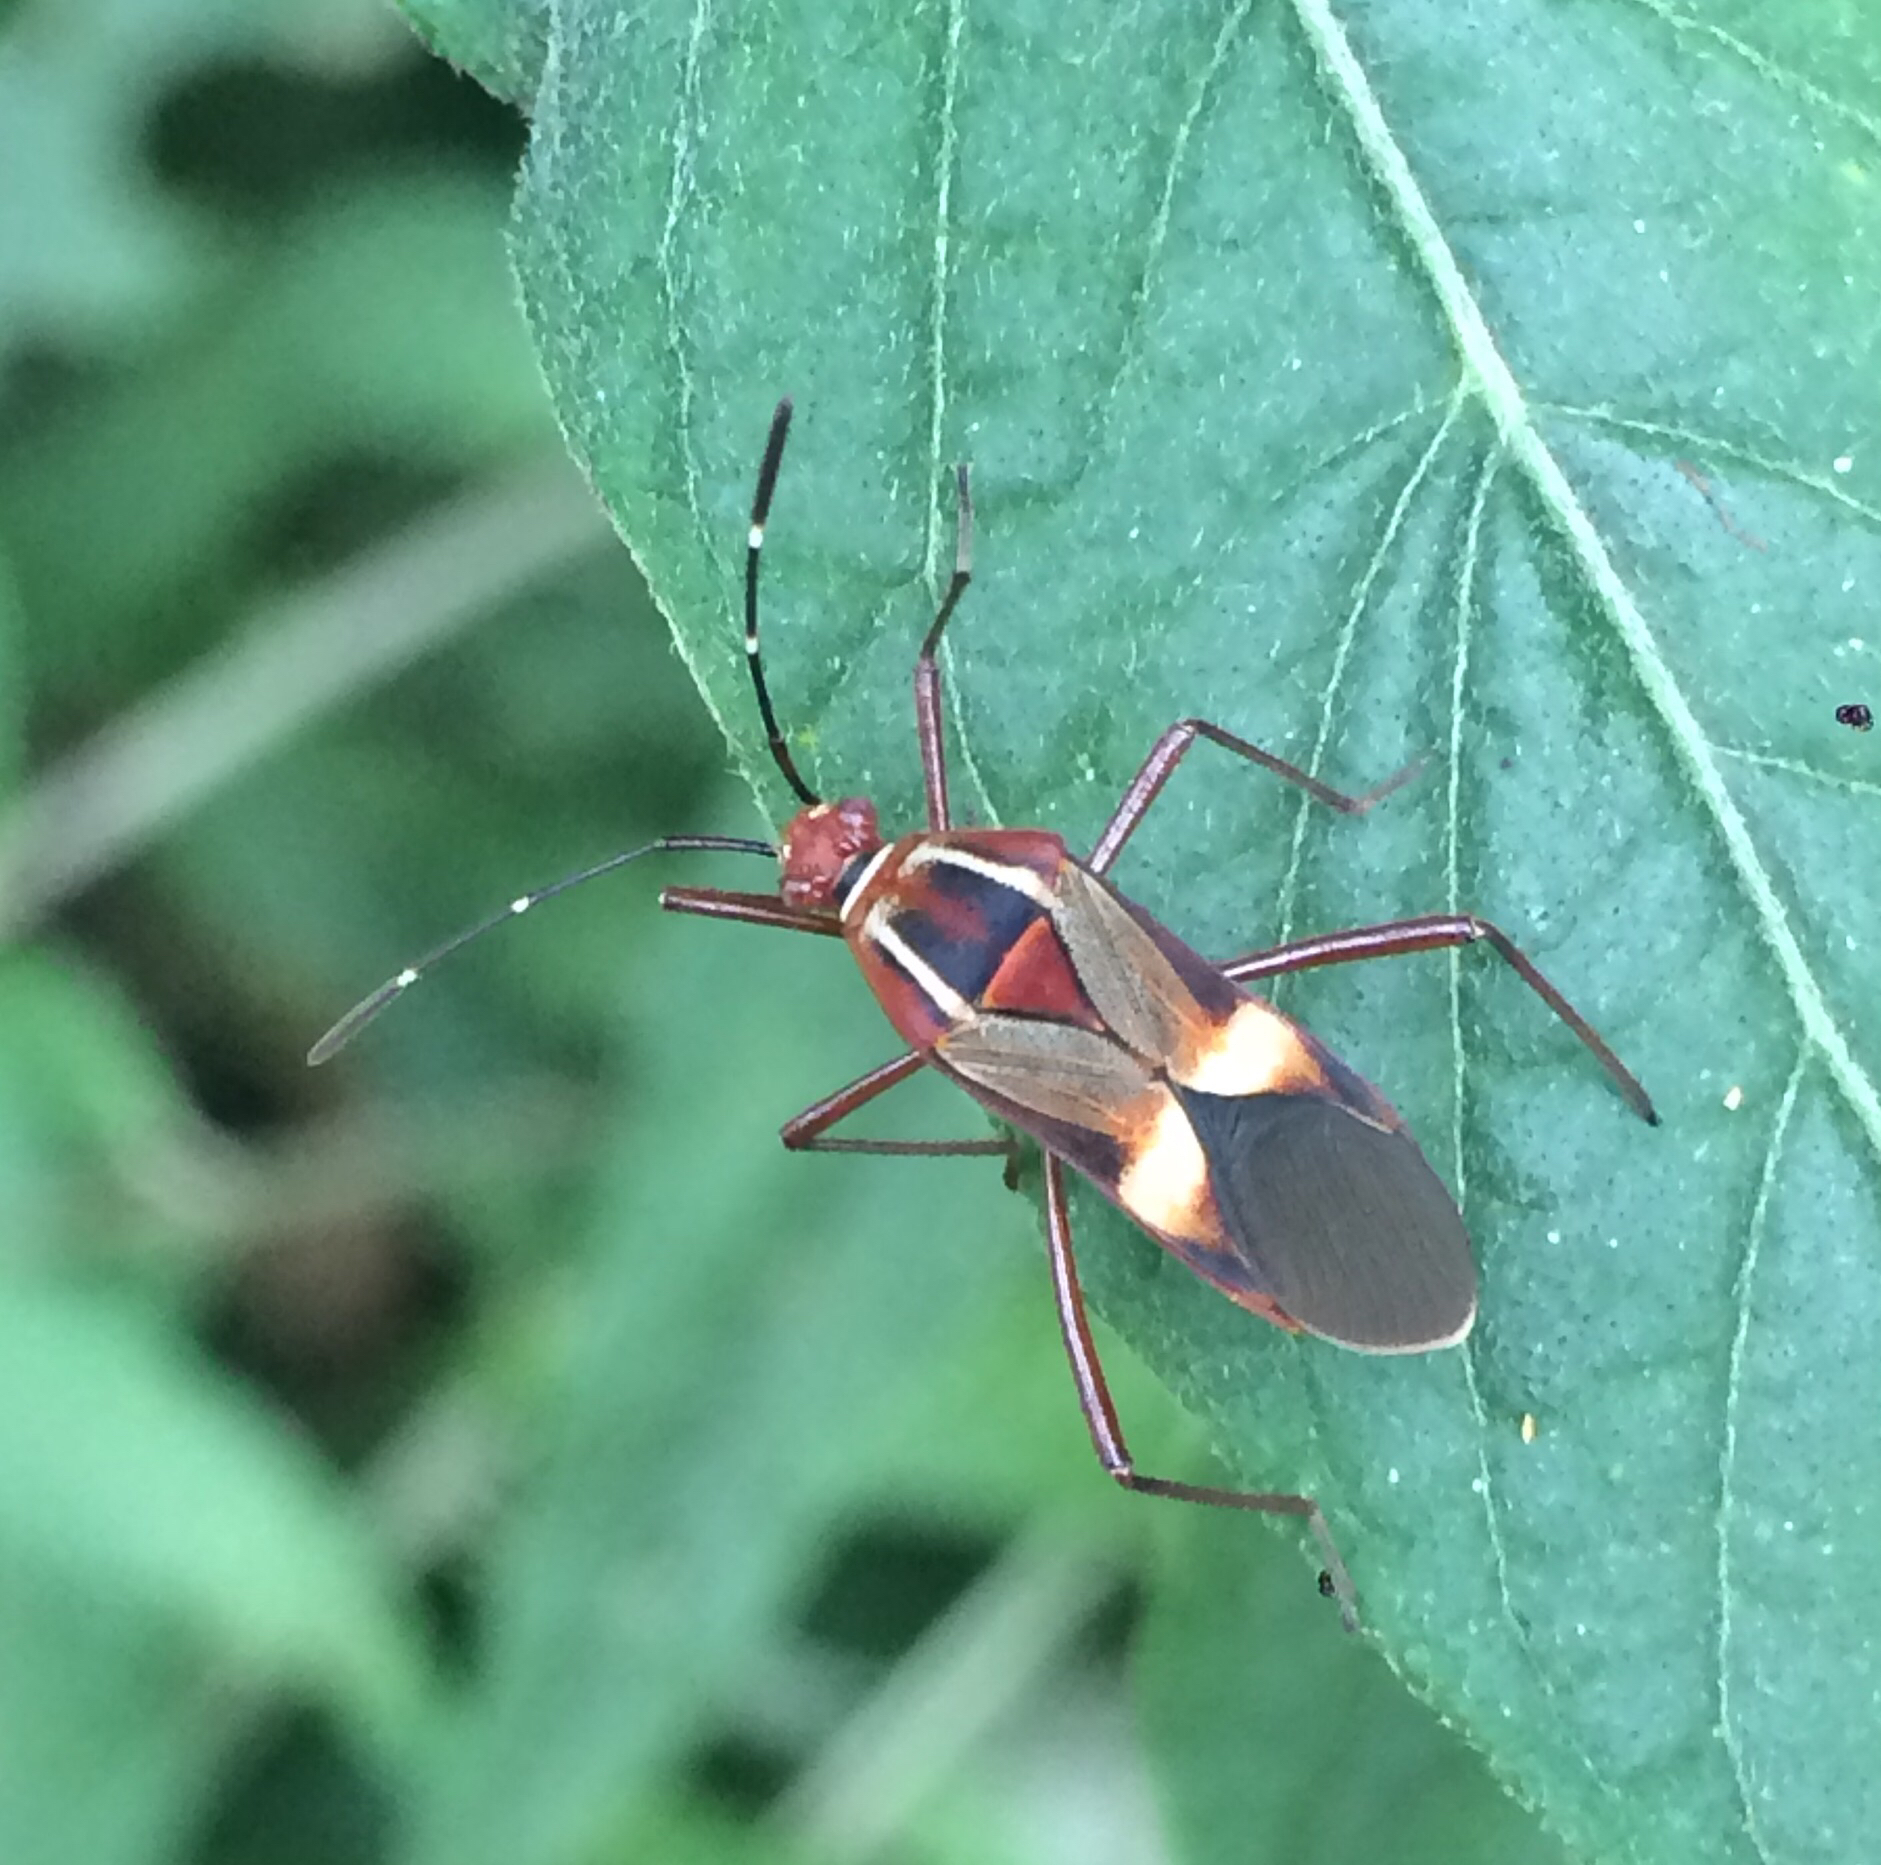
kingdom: Animalia
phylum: Arthropoda
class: Insecta
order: Hemiptera
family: Coreidae
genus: Hypselonotus
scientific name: Hypselonotus interruptus
